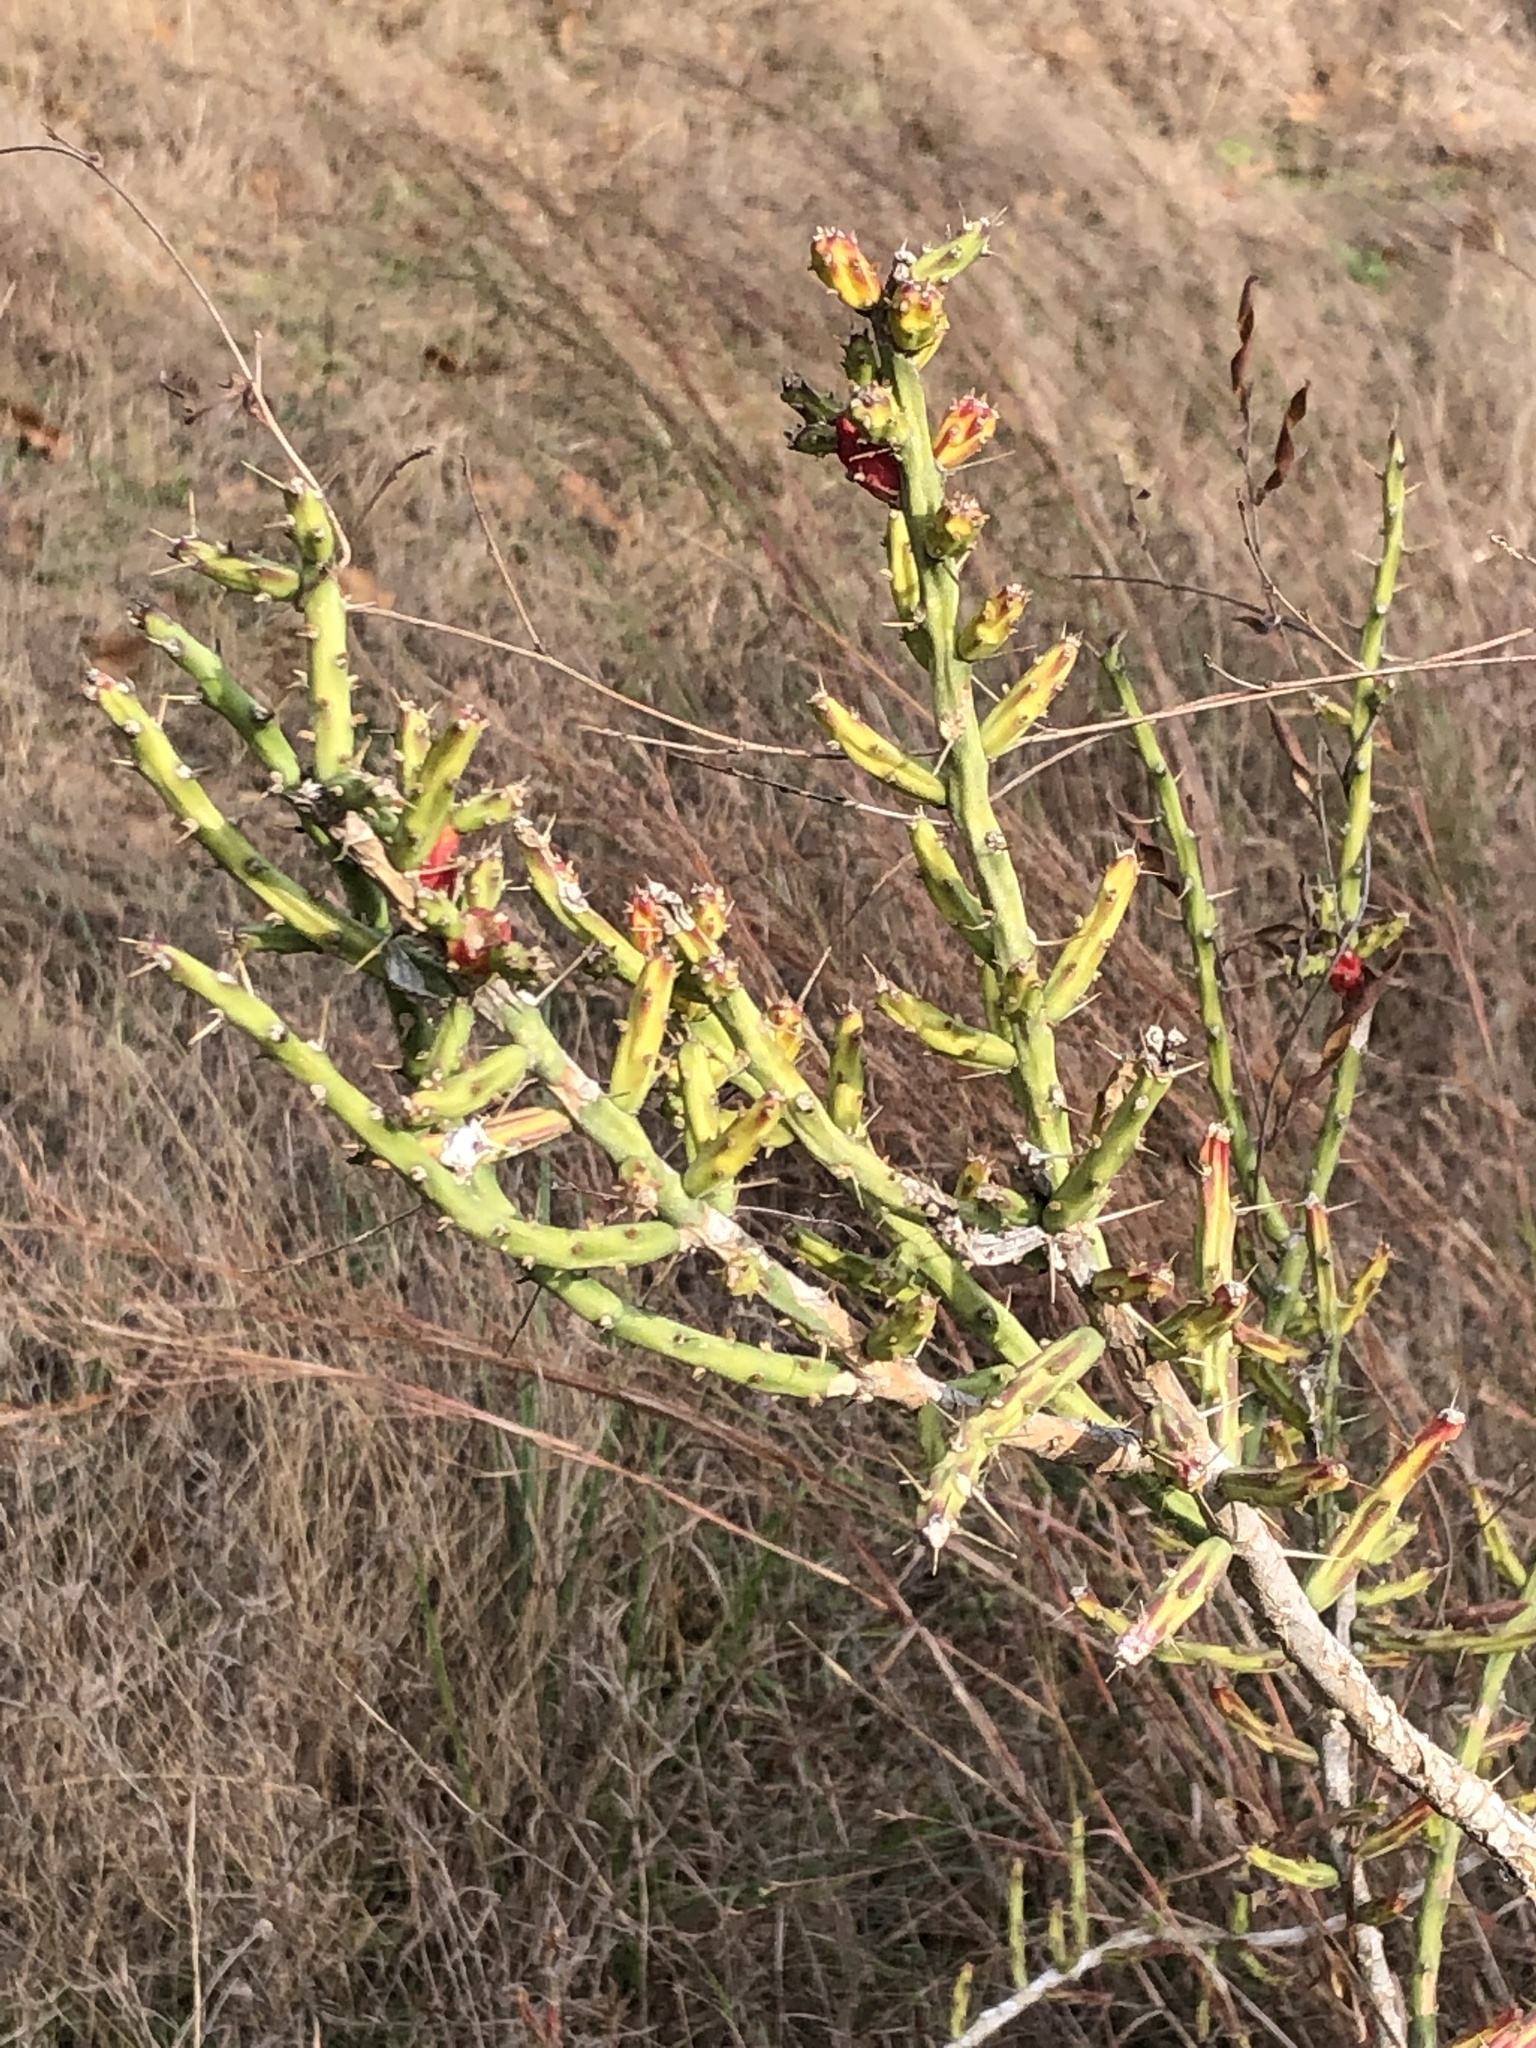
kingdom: Plantae
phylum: Tracheophyta
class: Magnoliopsida
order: Caryophyllales
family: Cactaceae
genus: Cylindropuntia
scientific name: Cylindropuntia leptocaulis
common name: Christmas cactus
